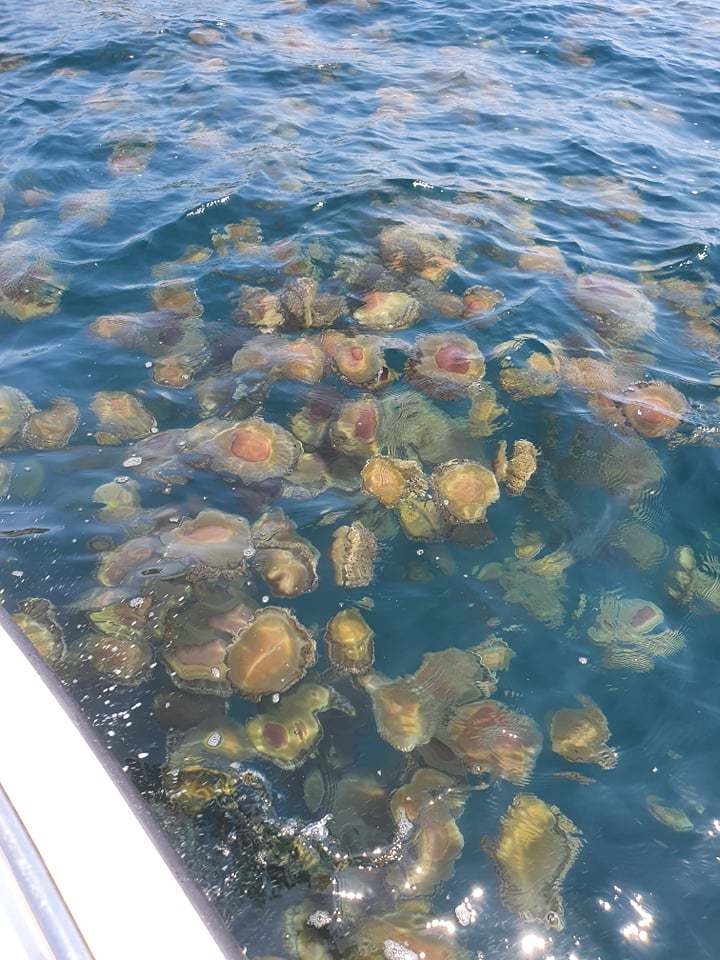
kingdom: Animalia
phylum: Cnidaria
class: Scyphozoa
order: Rhizostomeae
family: Cepheidae
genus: Cotylorhiza
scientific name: Cotylorhiza tuberculata
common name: Mediterranean jelly
